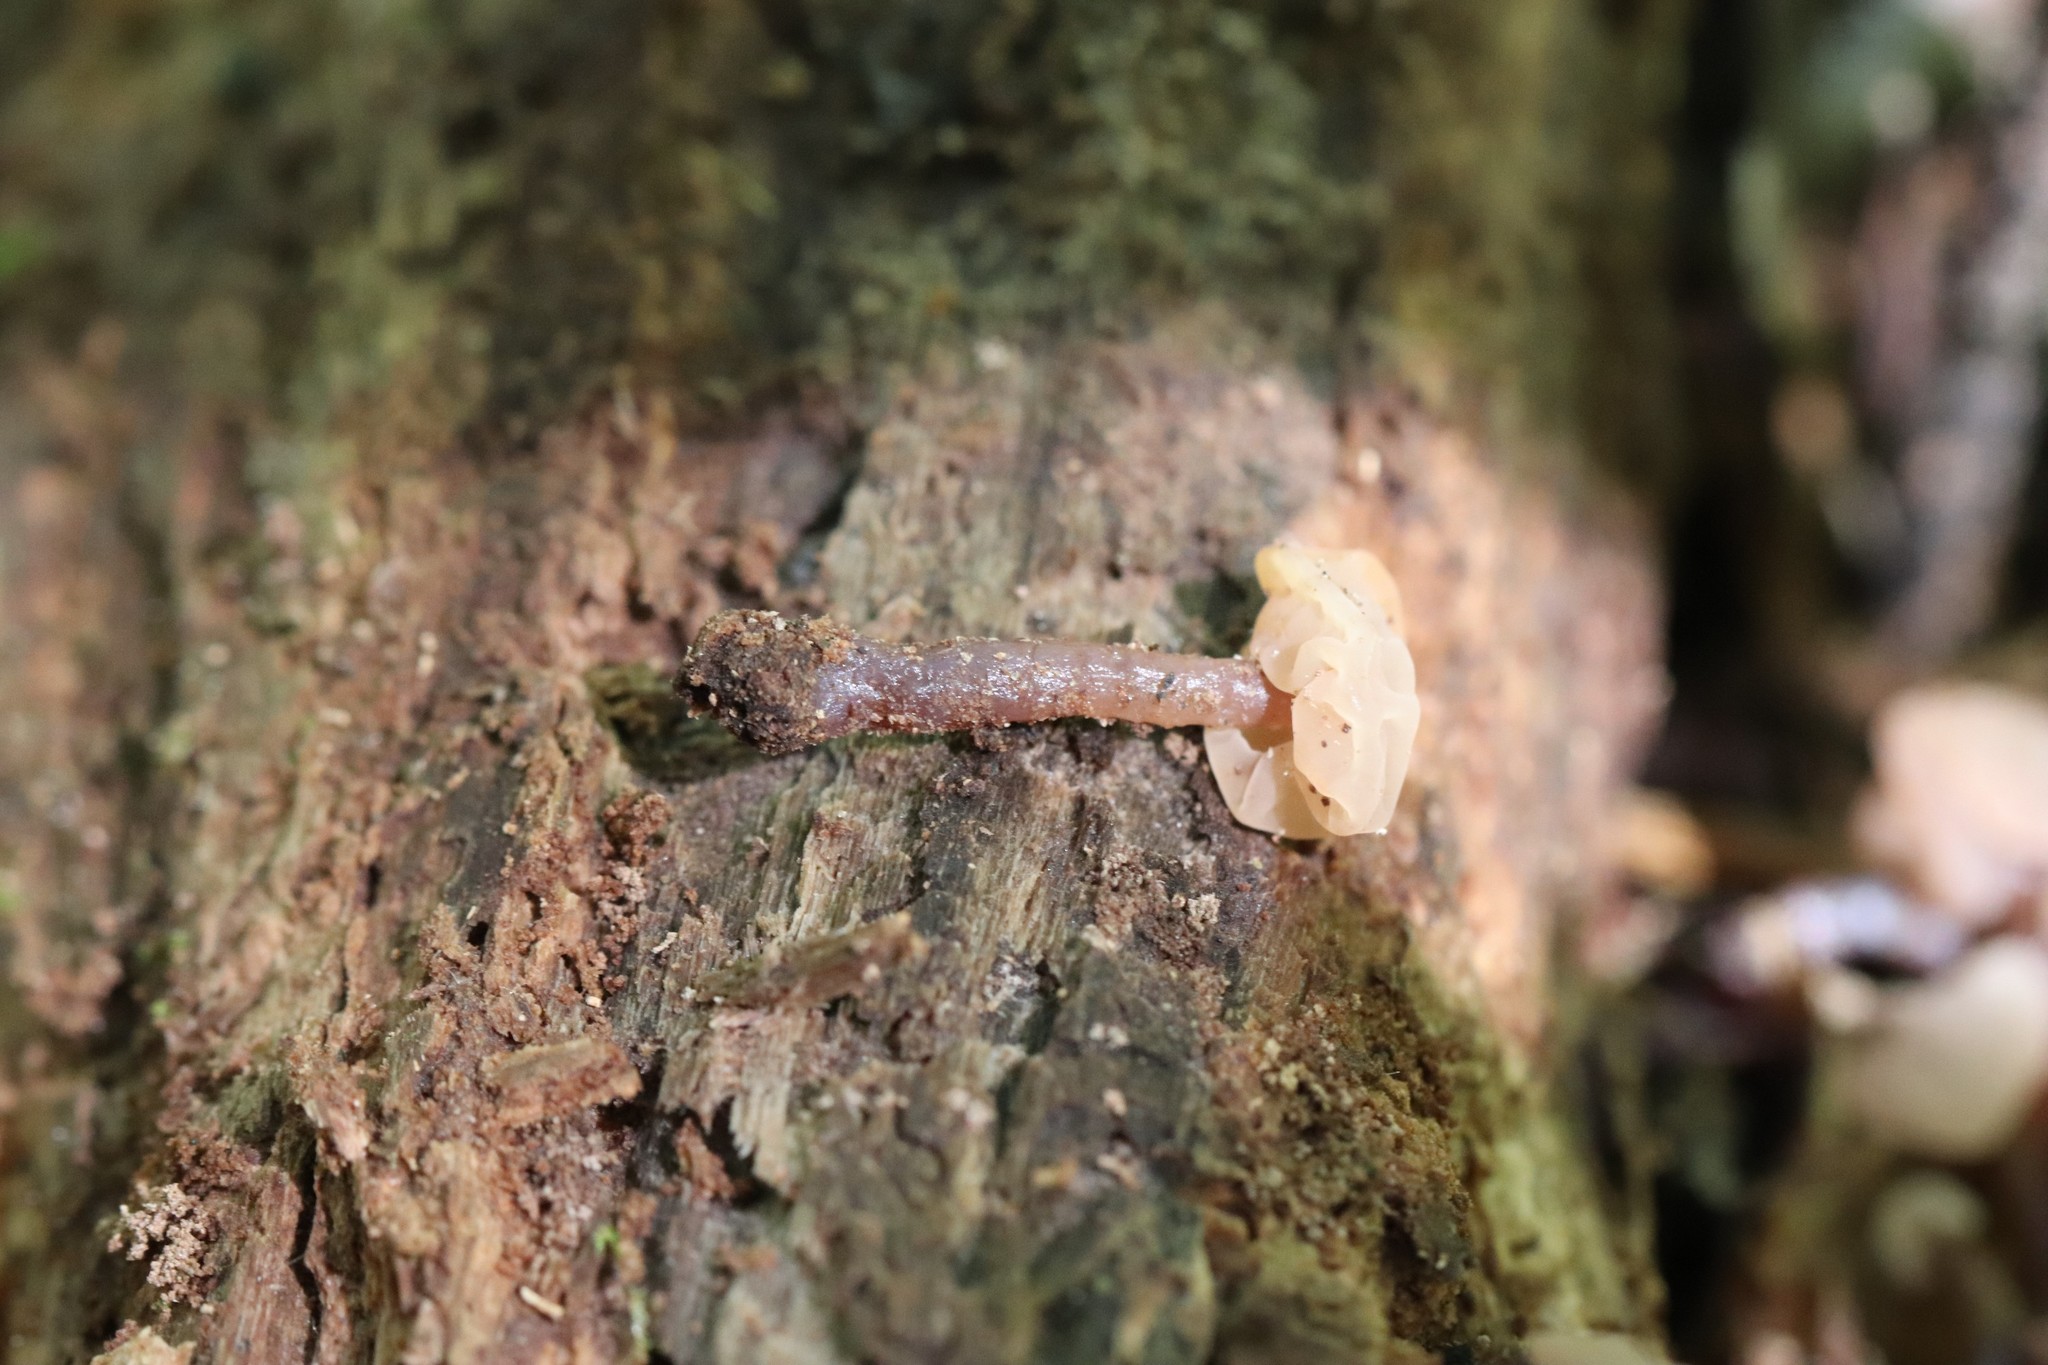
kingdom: Fungi
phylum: Ascomycota
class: Leotiomycetes
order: Helotiales
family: Bryoglossaceae
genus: Neocudoniella
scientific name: Neocudoniella albiceps
